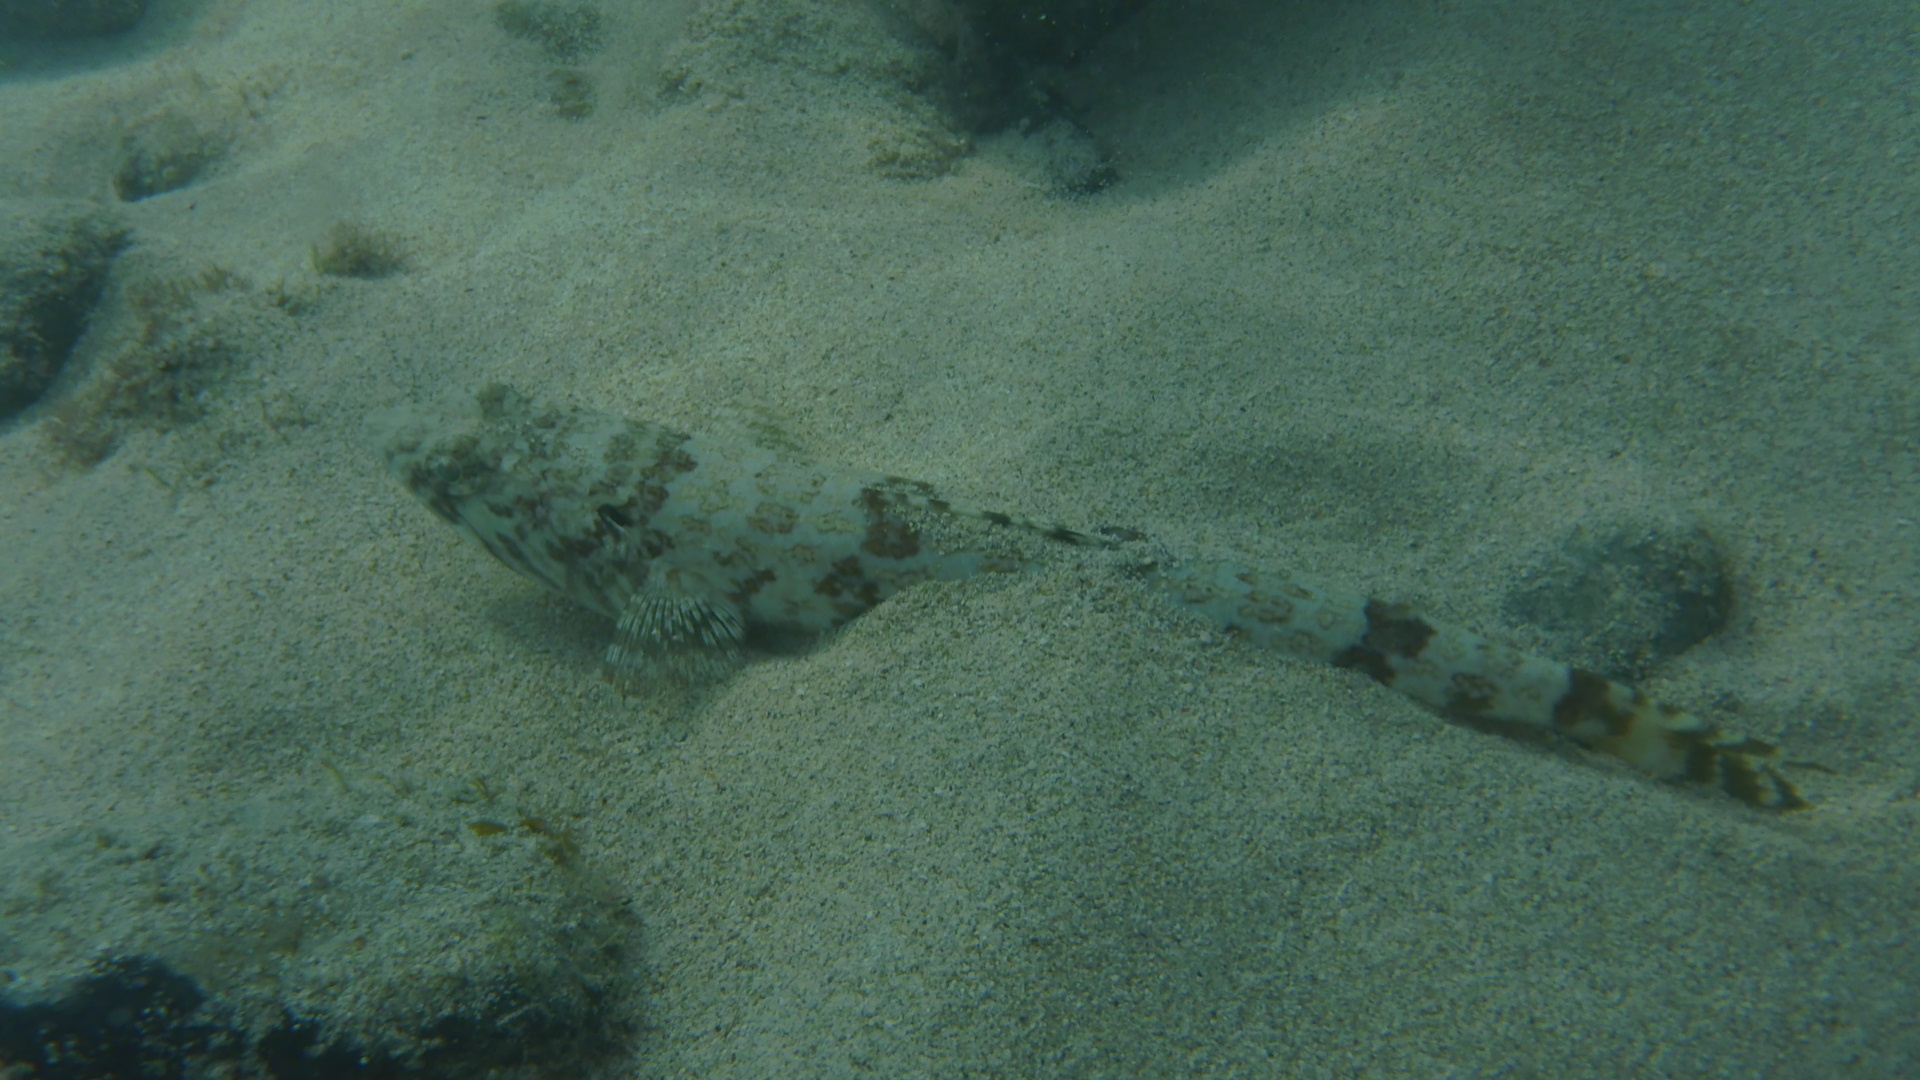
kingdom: Animalia
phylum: Chordata
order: Aulopiformes
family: Synodontidae
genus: Synodus
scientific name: Synodus intermedius
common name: Sand diver
